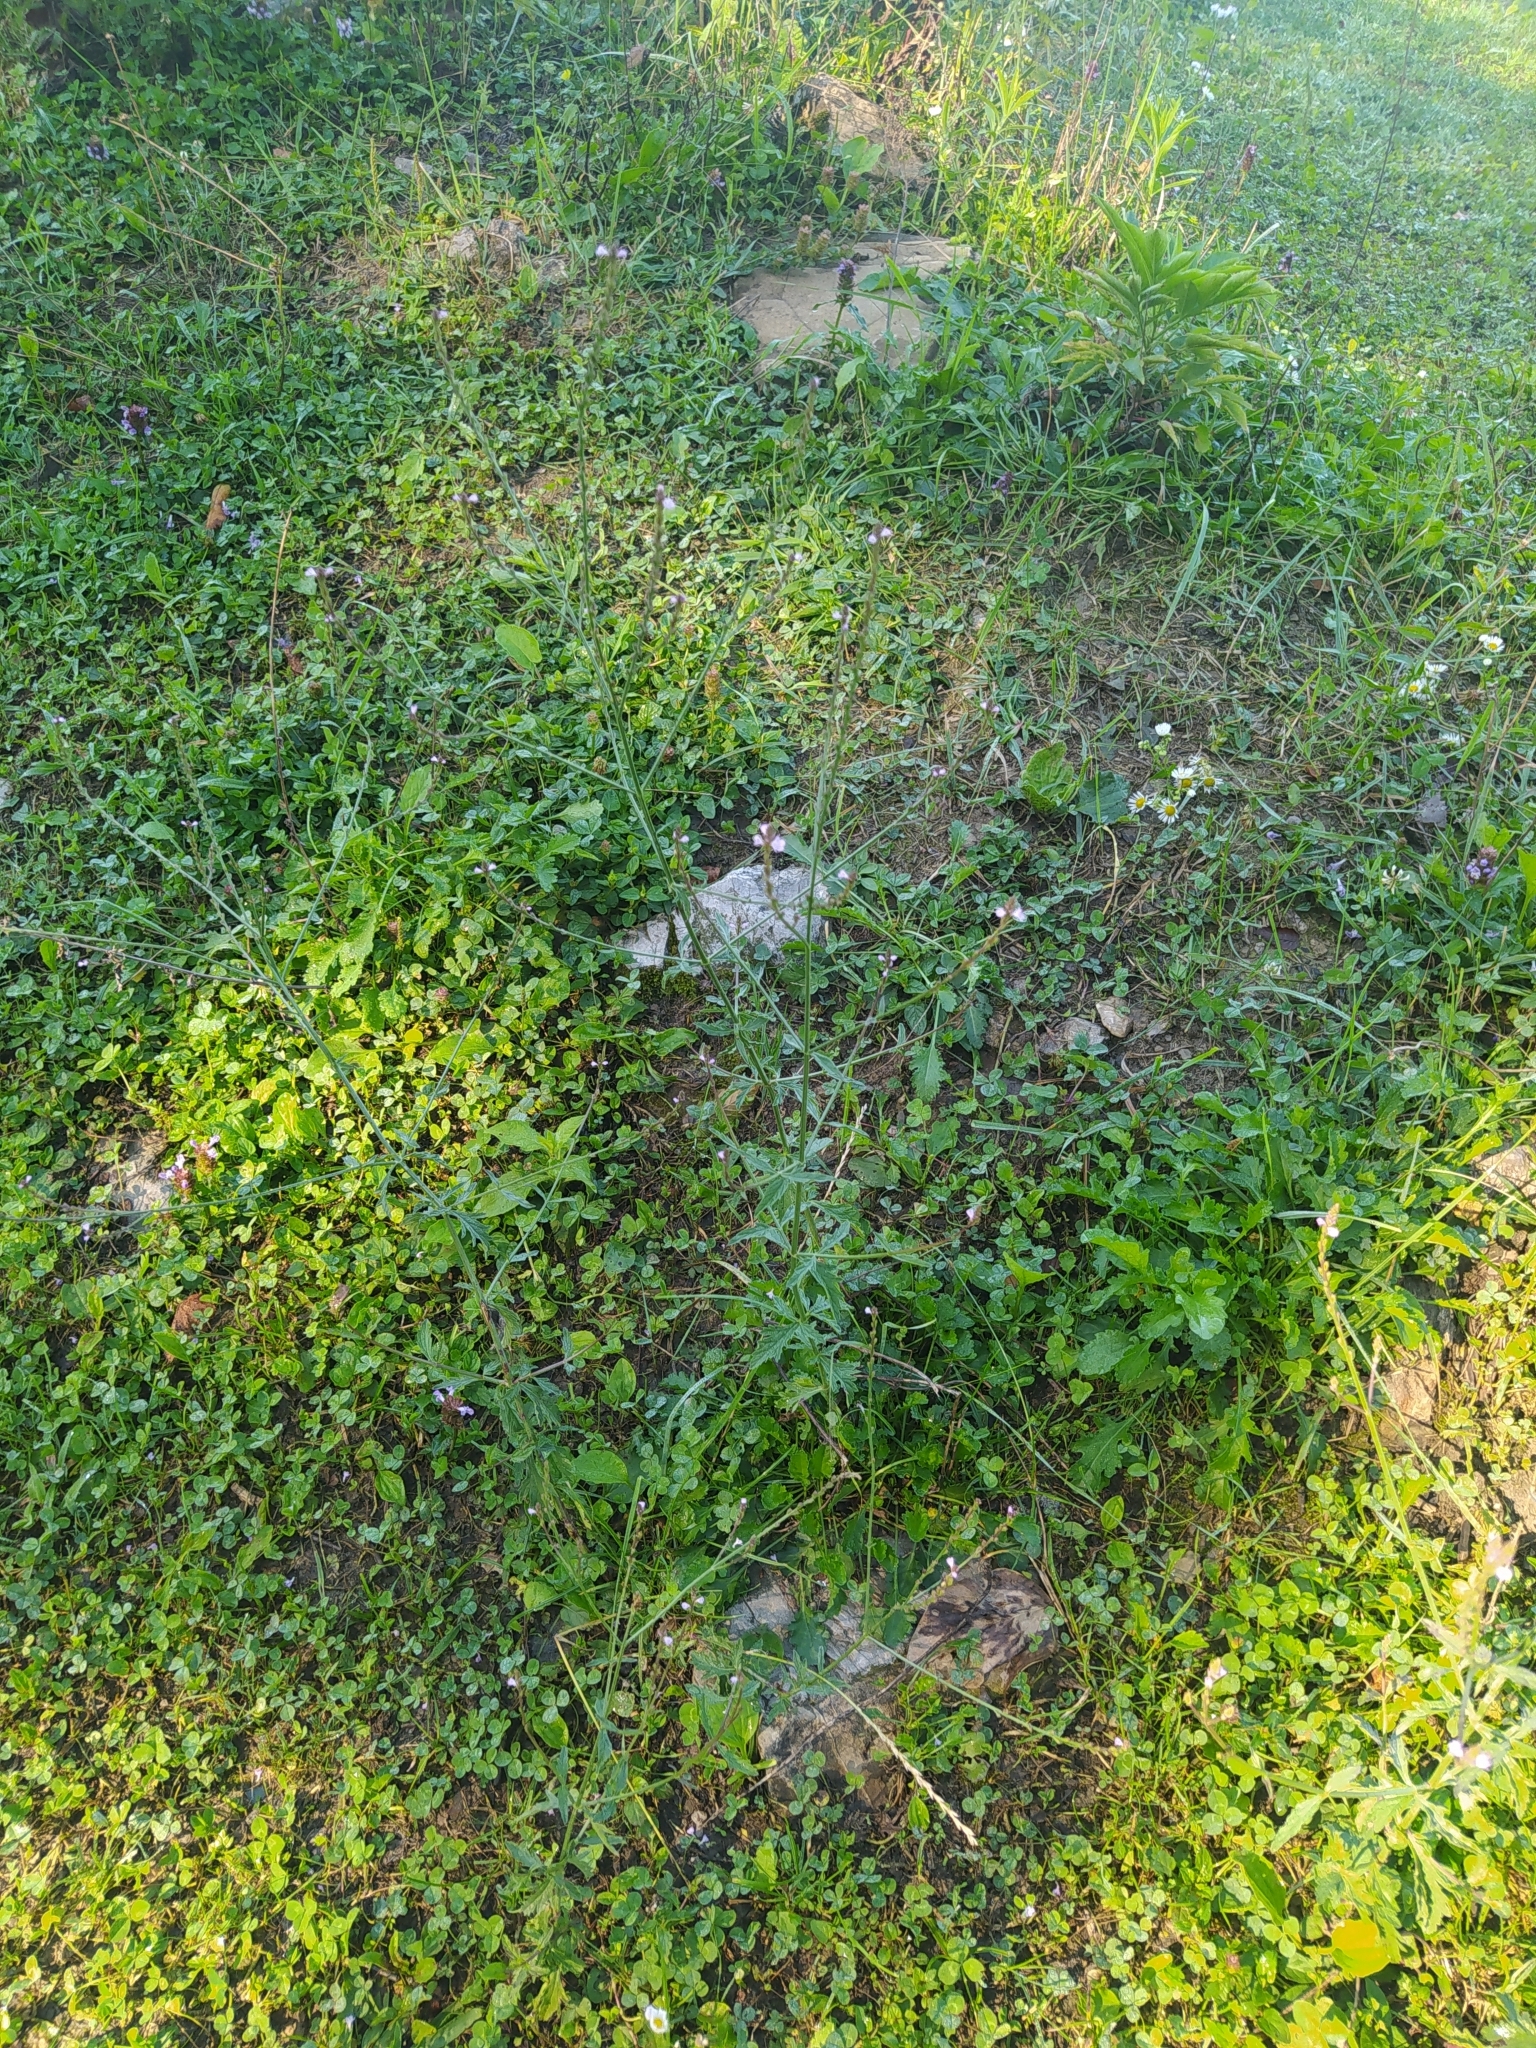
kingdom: Plantae
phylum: Tracheophyta
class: Magnoliopsida
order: Lamiales
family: Verbenaceae
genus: Verbena
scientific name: Verbena officinalis
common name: Vervain
